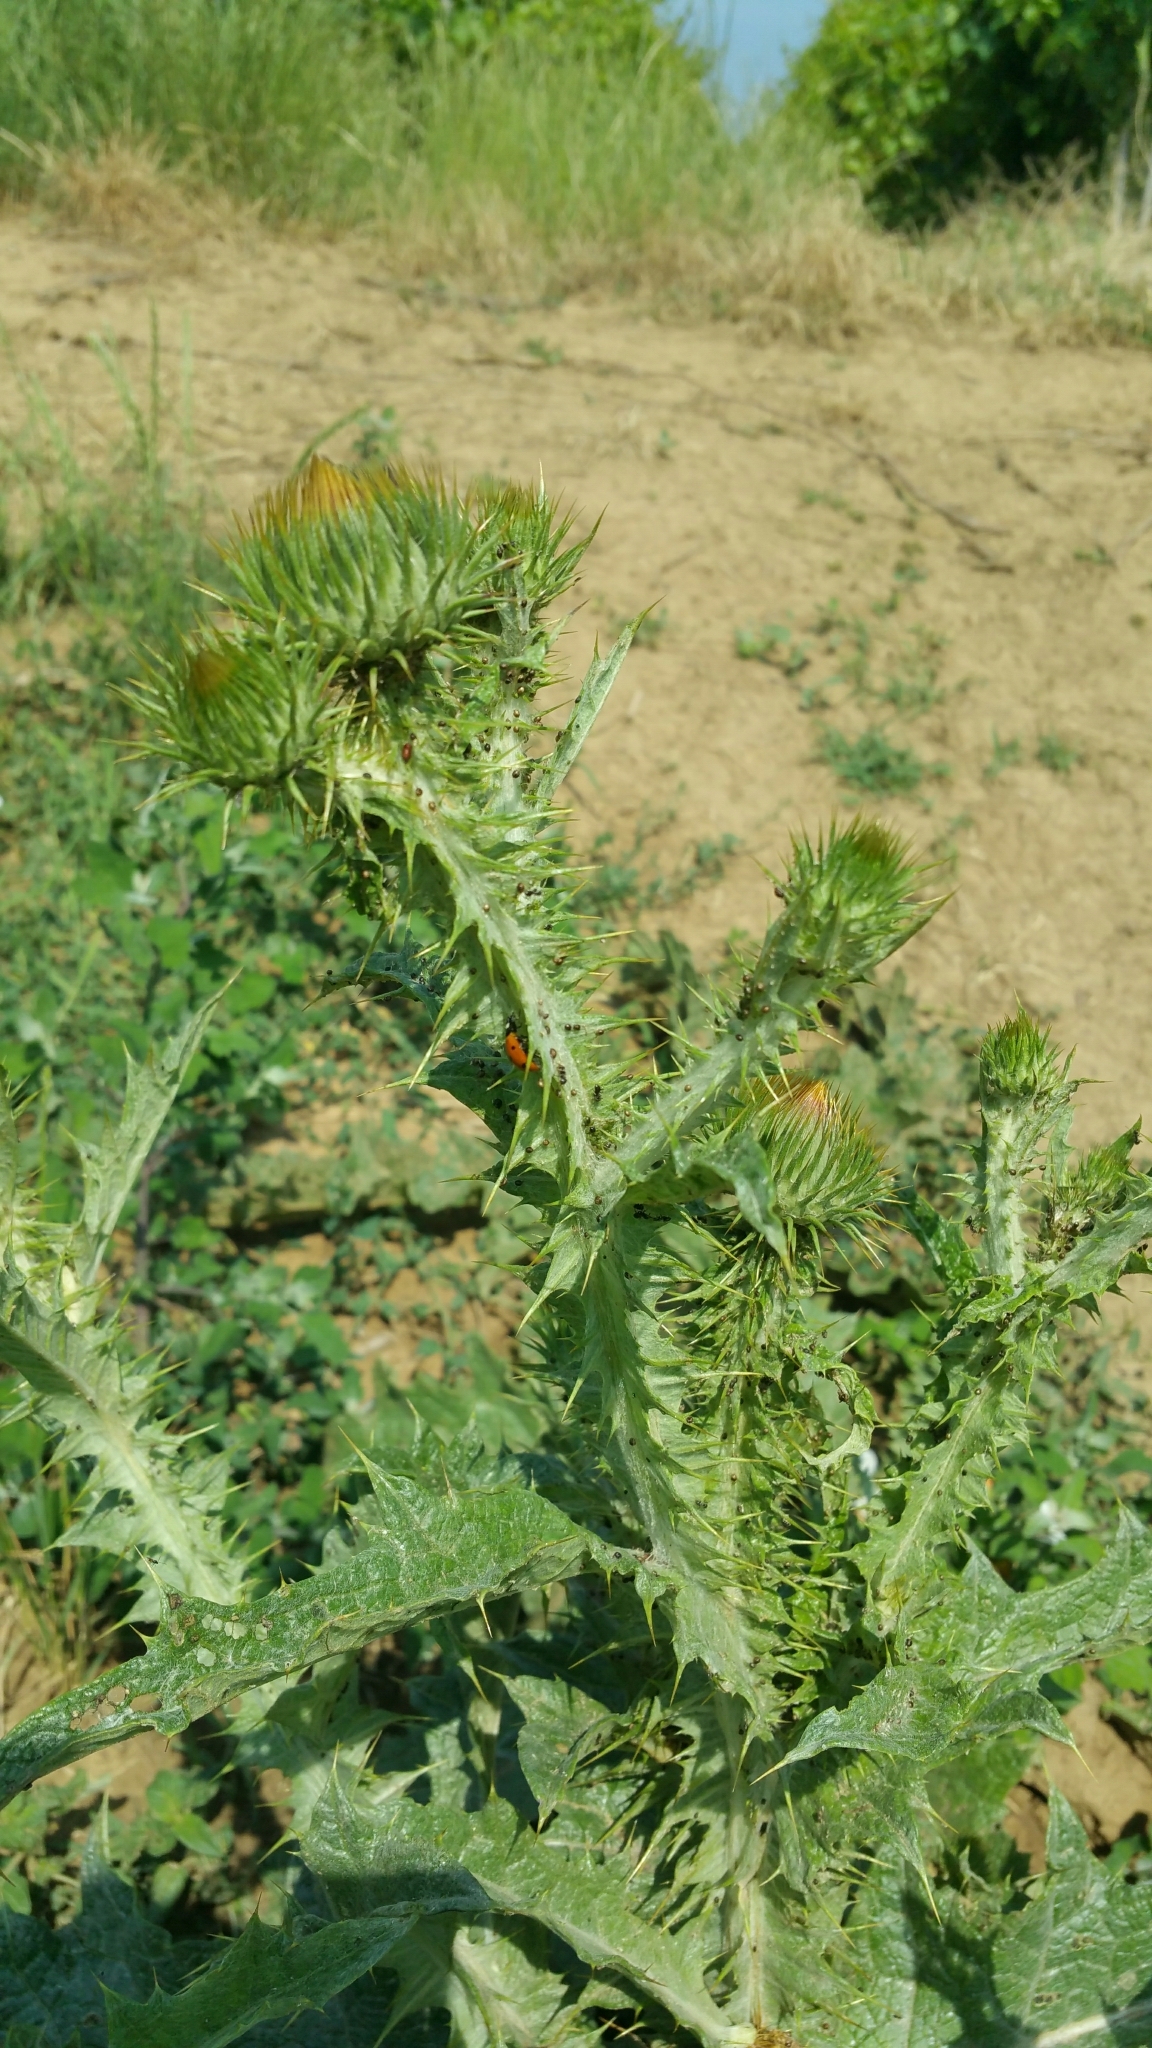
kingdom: Plantae
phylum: Tracheophyta
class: Magnoliopsida
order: Asterales
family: Asteraceae
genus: Onopordum
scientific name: Onopordum acanthium
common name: Scotch thistle
